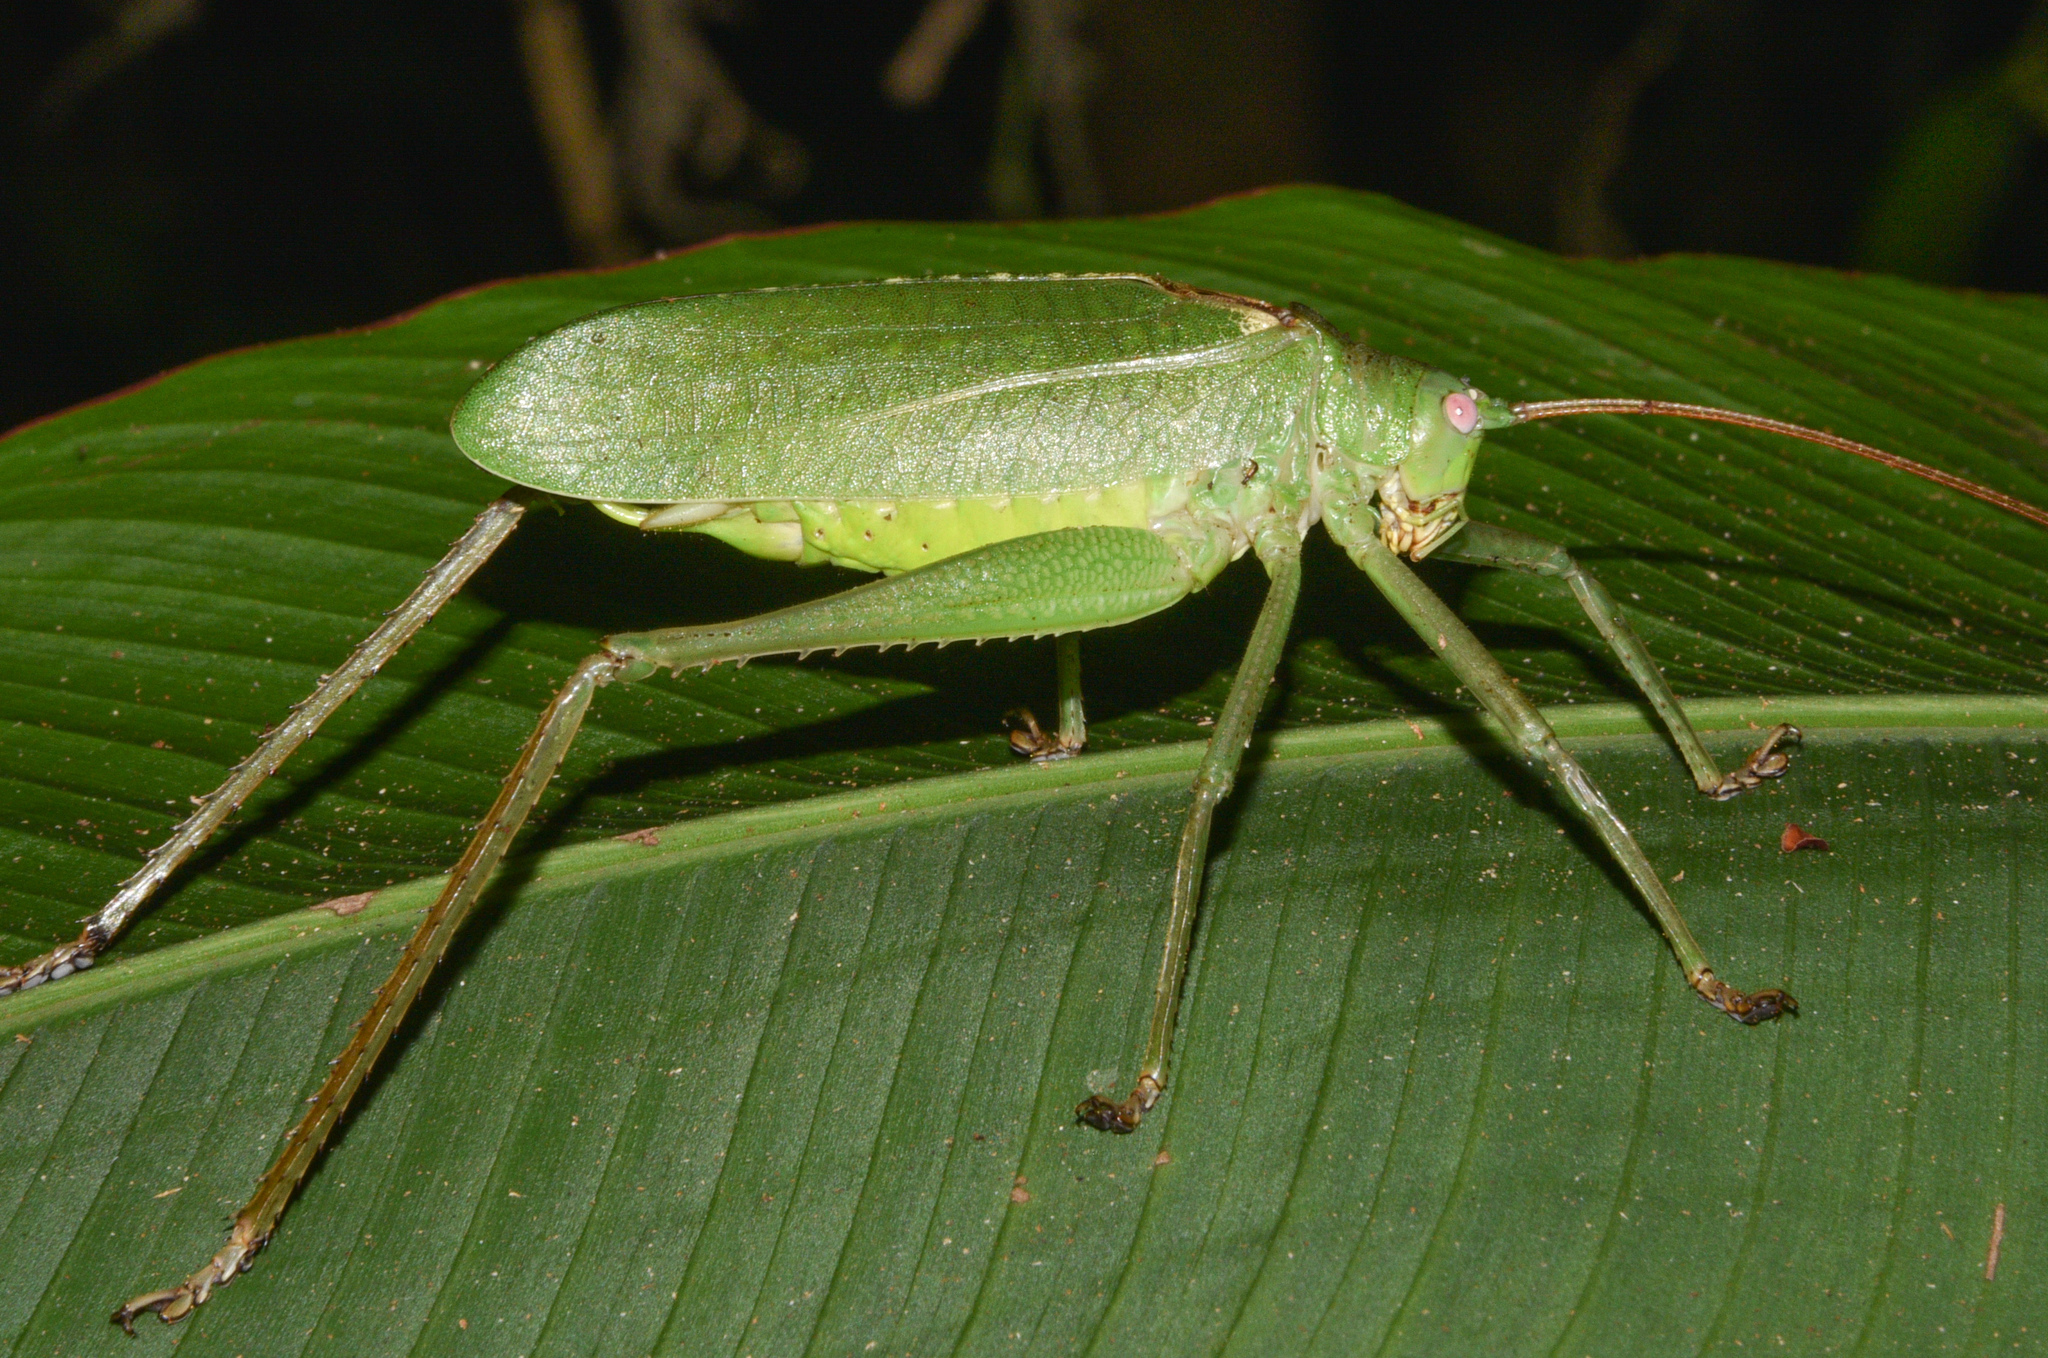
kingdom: Animalia
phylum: Arthropoda
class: Insecta
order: Orthoptera
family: Tettigoniidae
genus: Diophanes
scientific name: Diophanes rosescens
